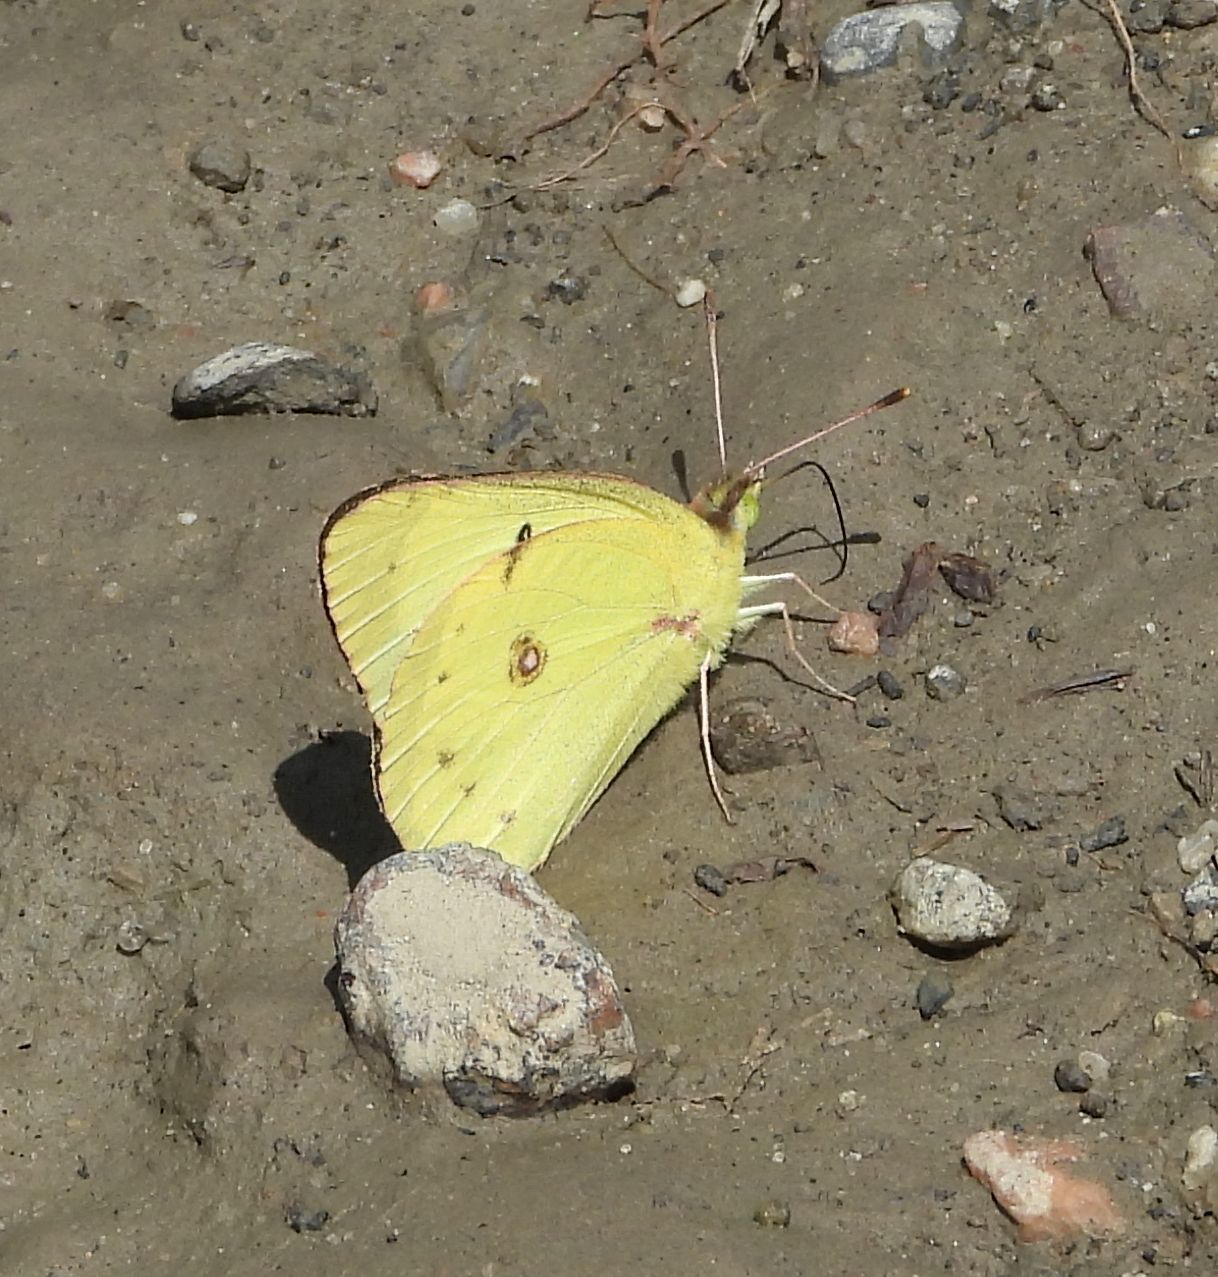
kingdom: Animalia
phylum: Arthropoda
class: Insecta
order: Lepidoptera
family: Pieridae
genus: Colias
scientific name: Colias philodice
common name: Clouded sulphur
